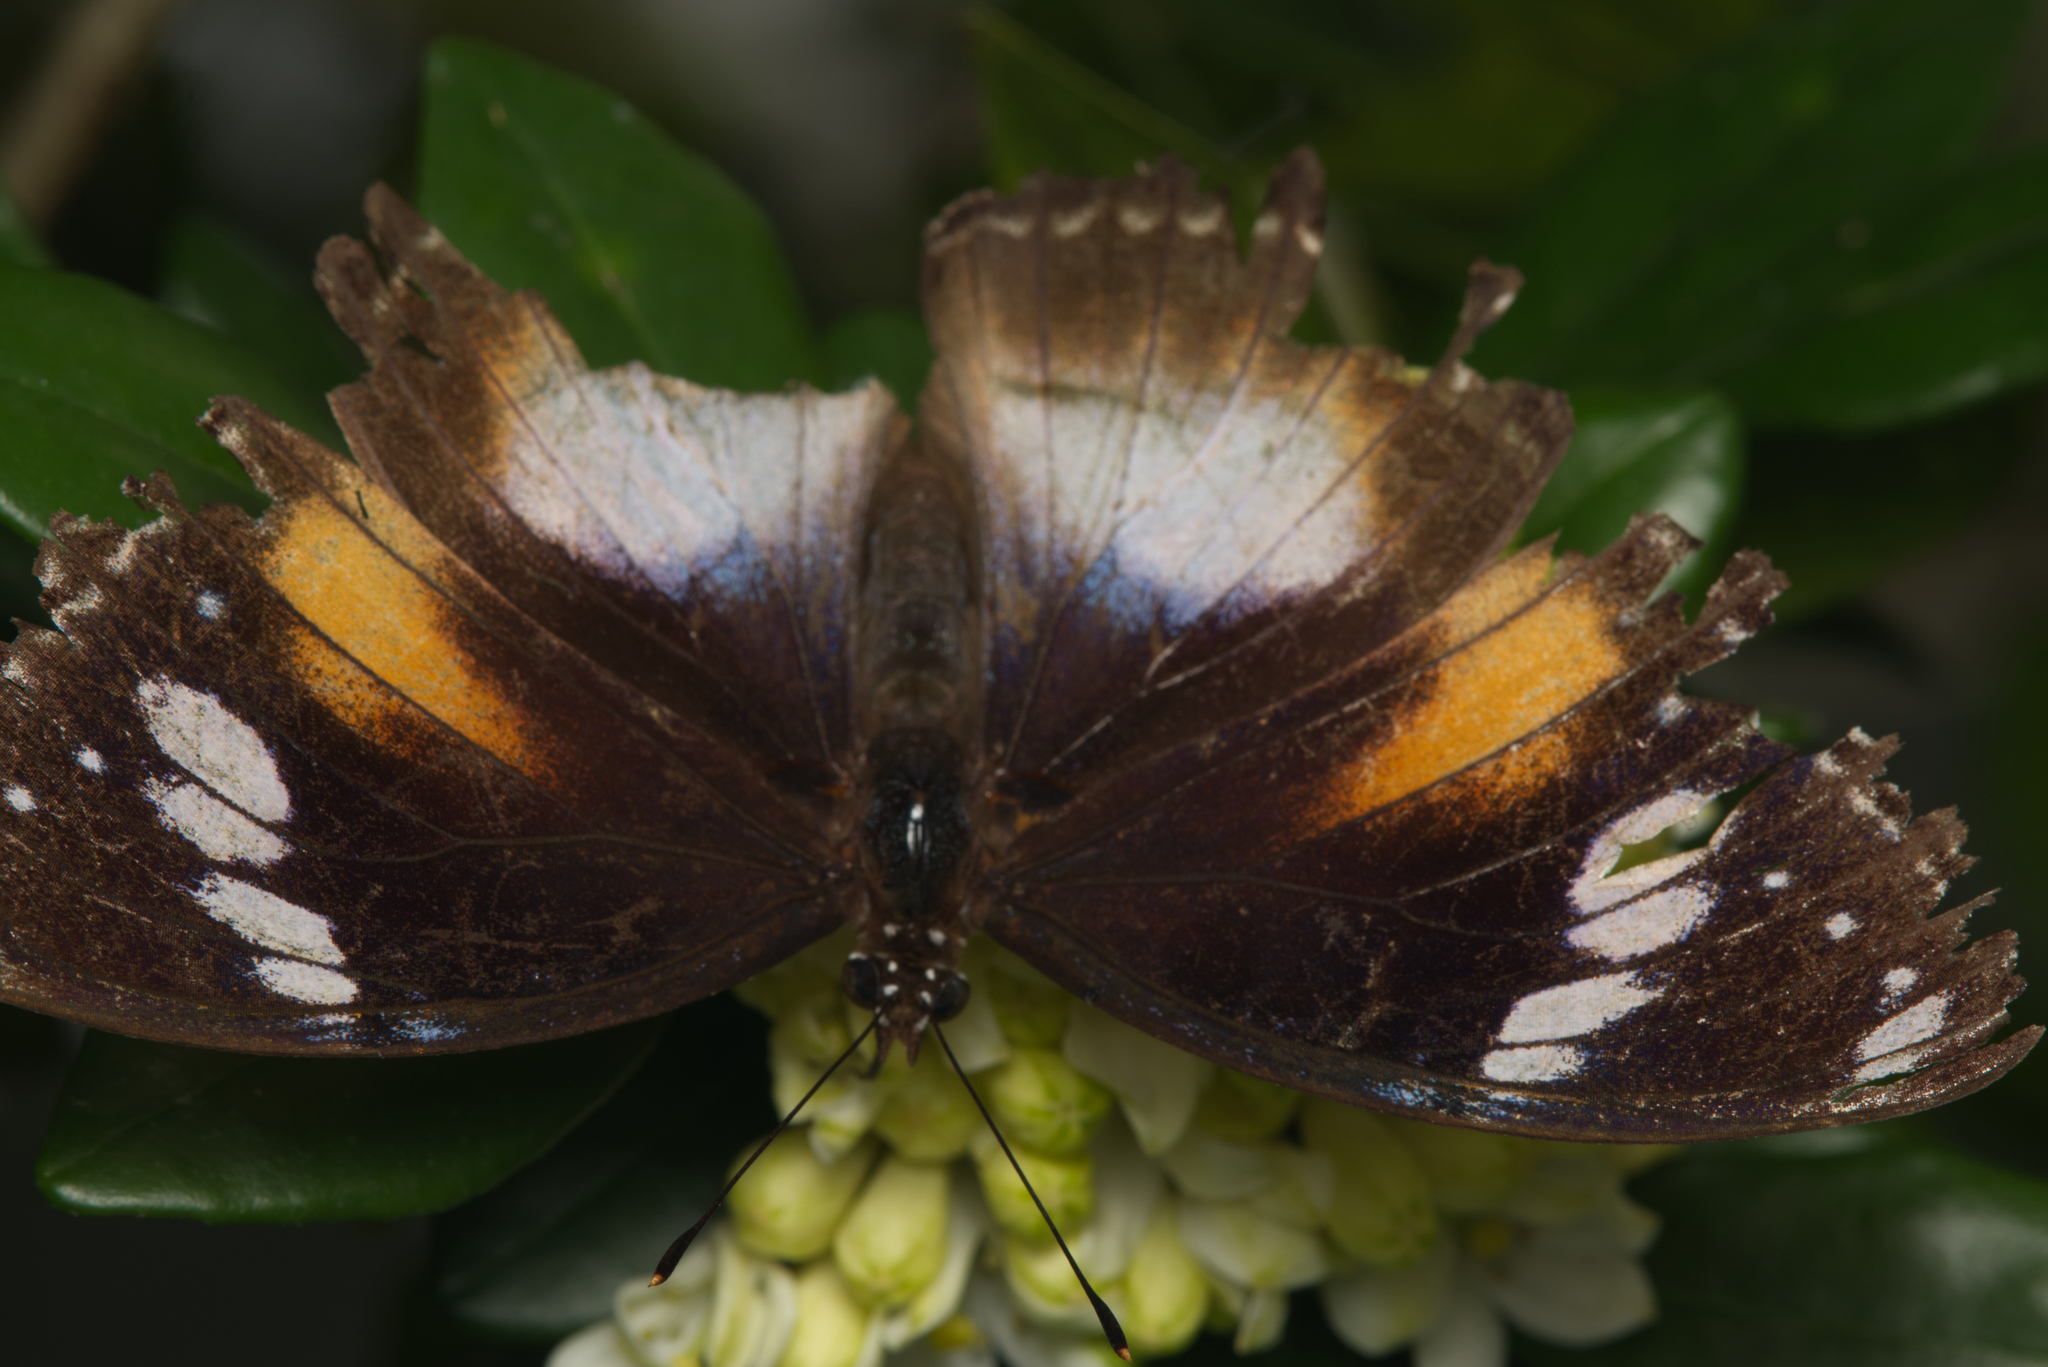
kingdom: Animalia
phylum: Arthropoda
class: Insecta
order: Lepidoptera
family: Nymphalidae
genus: Hypolimnas
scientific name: Hypolimnas bolina
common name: Great eggfly
